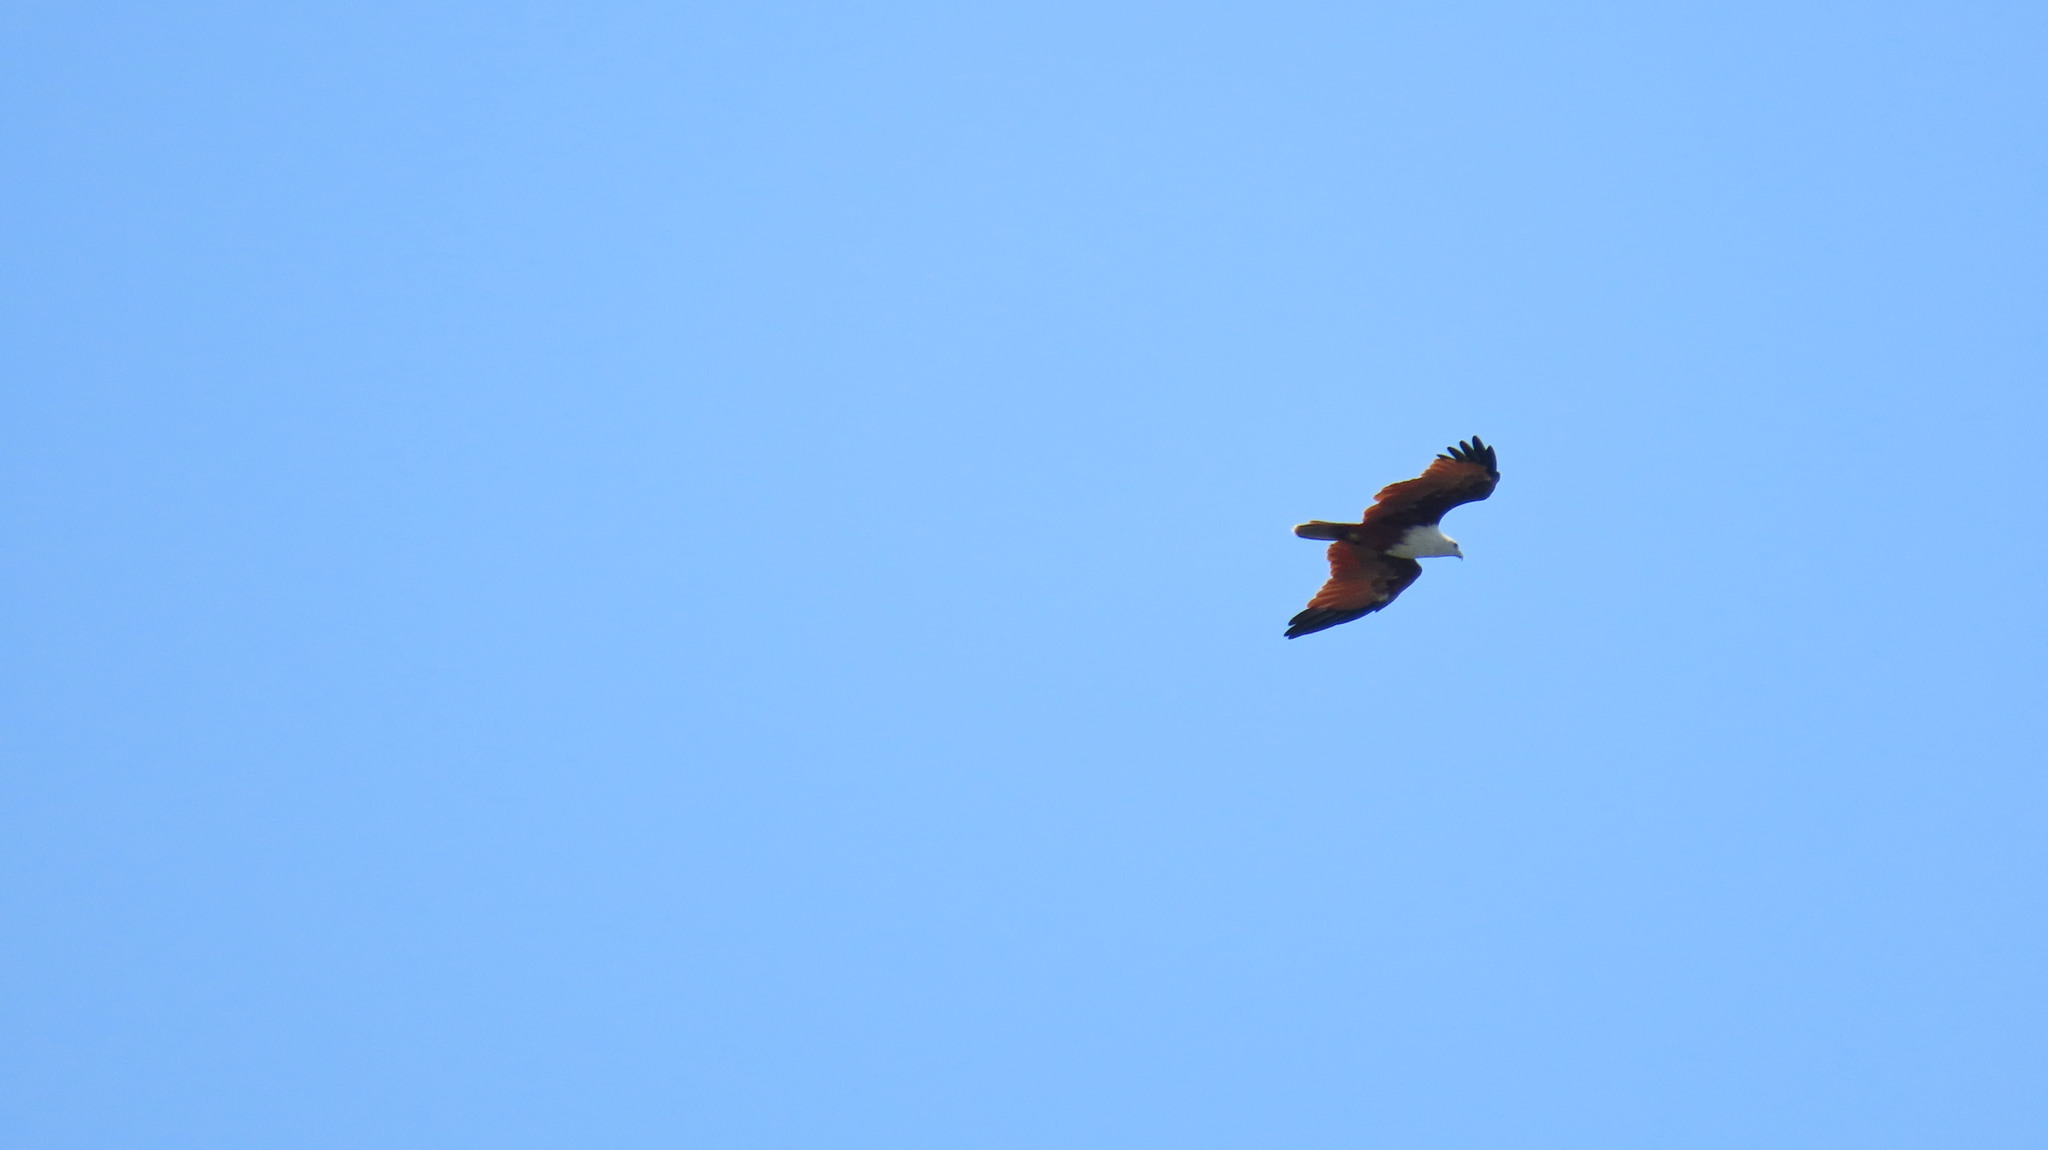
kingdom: Animalia
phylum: Chordata
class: Aves
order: Accipitriformes
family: Accipitridae
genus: Haliastur
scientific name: Haliastur indus
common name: Brahminy kite
